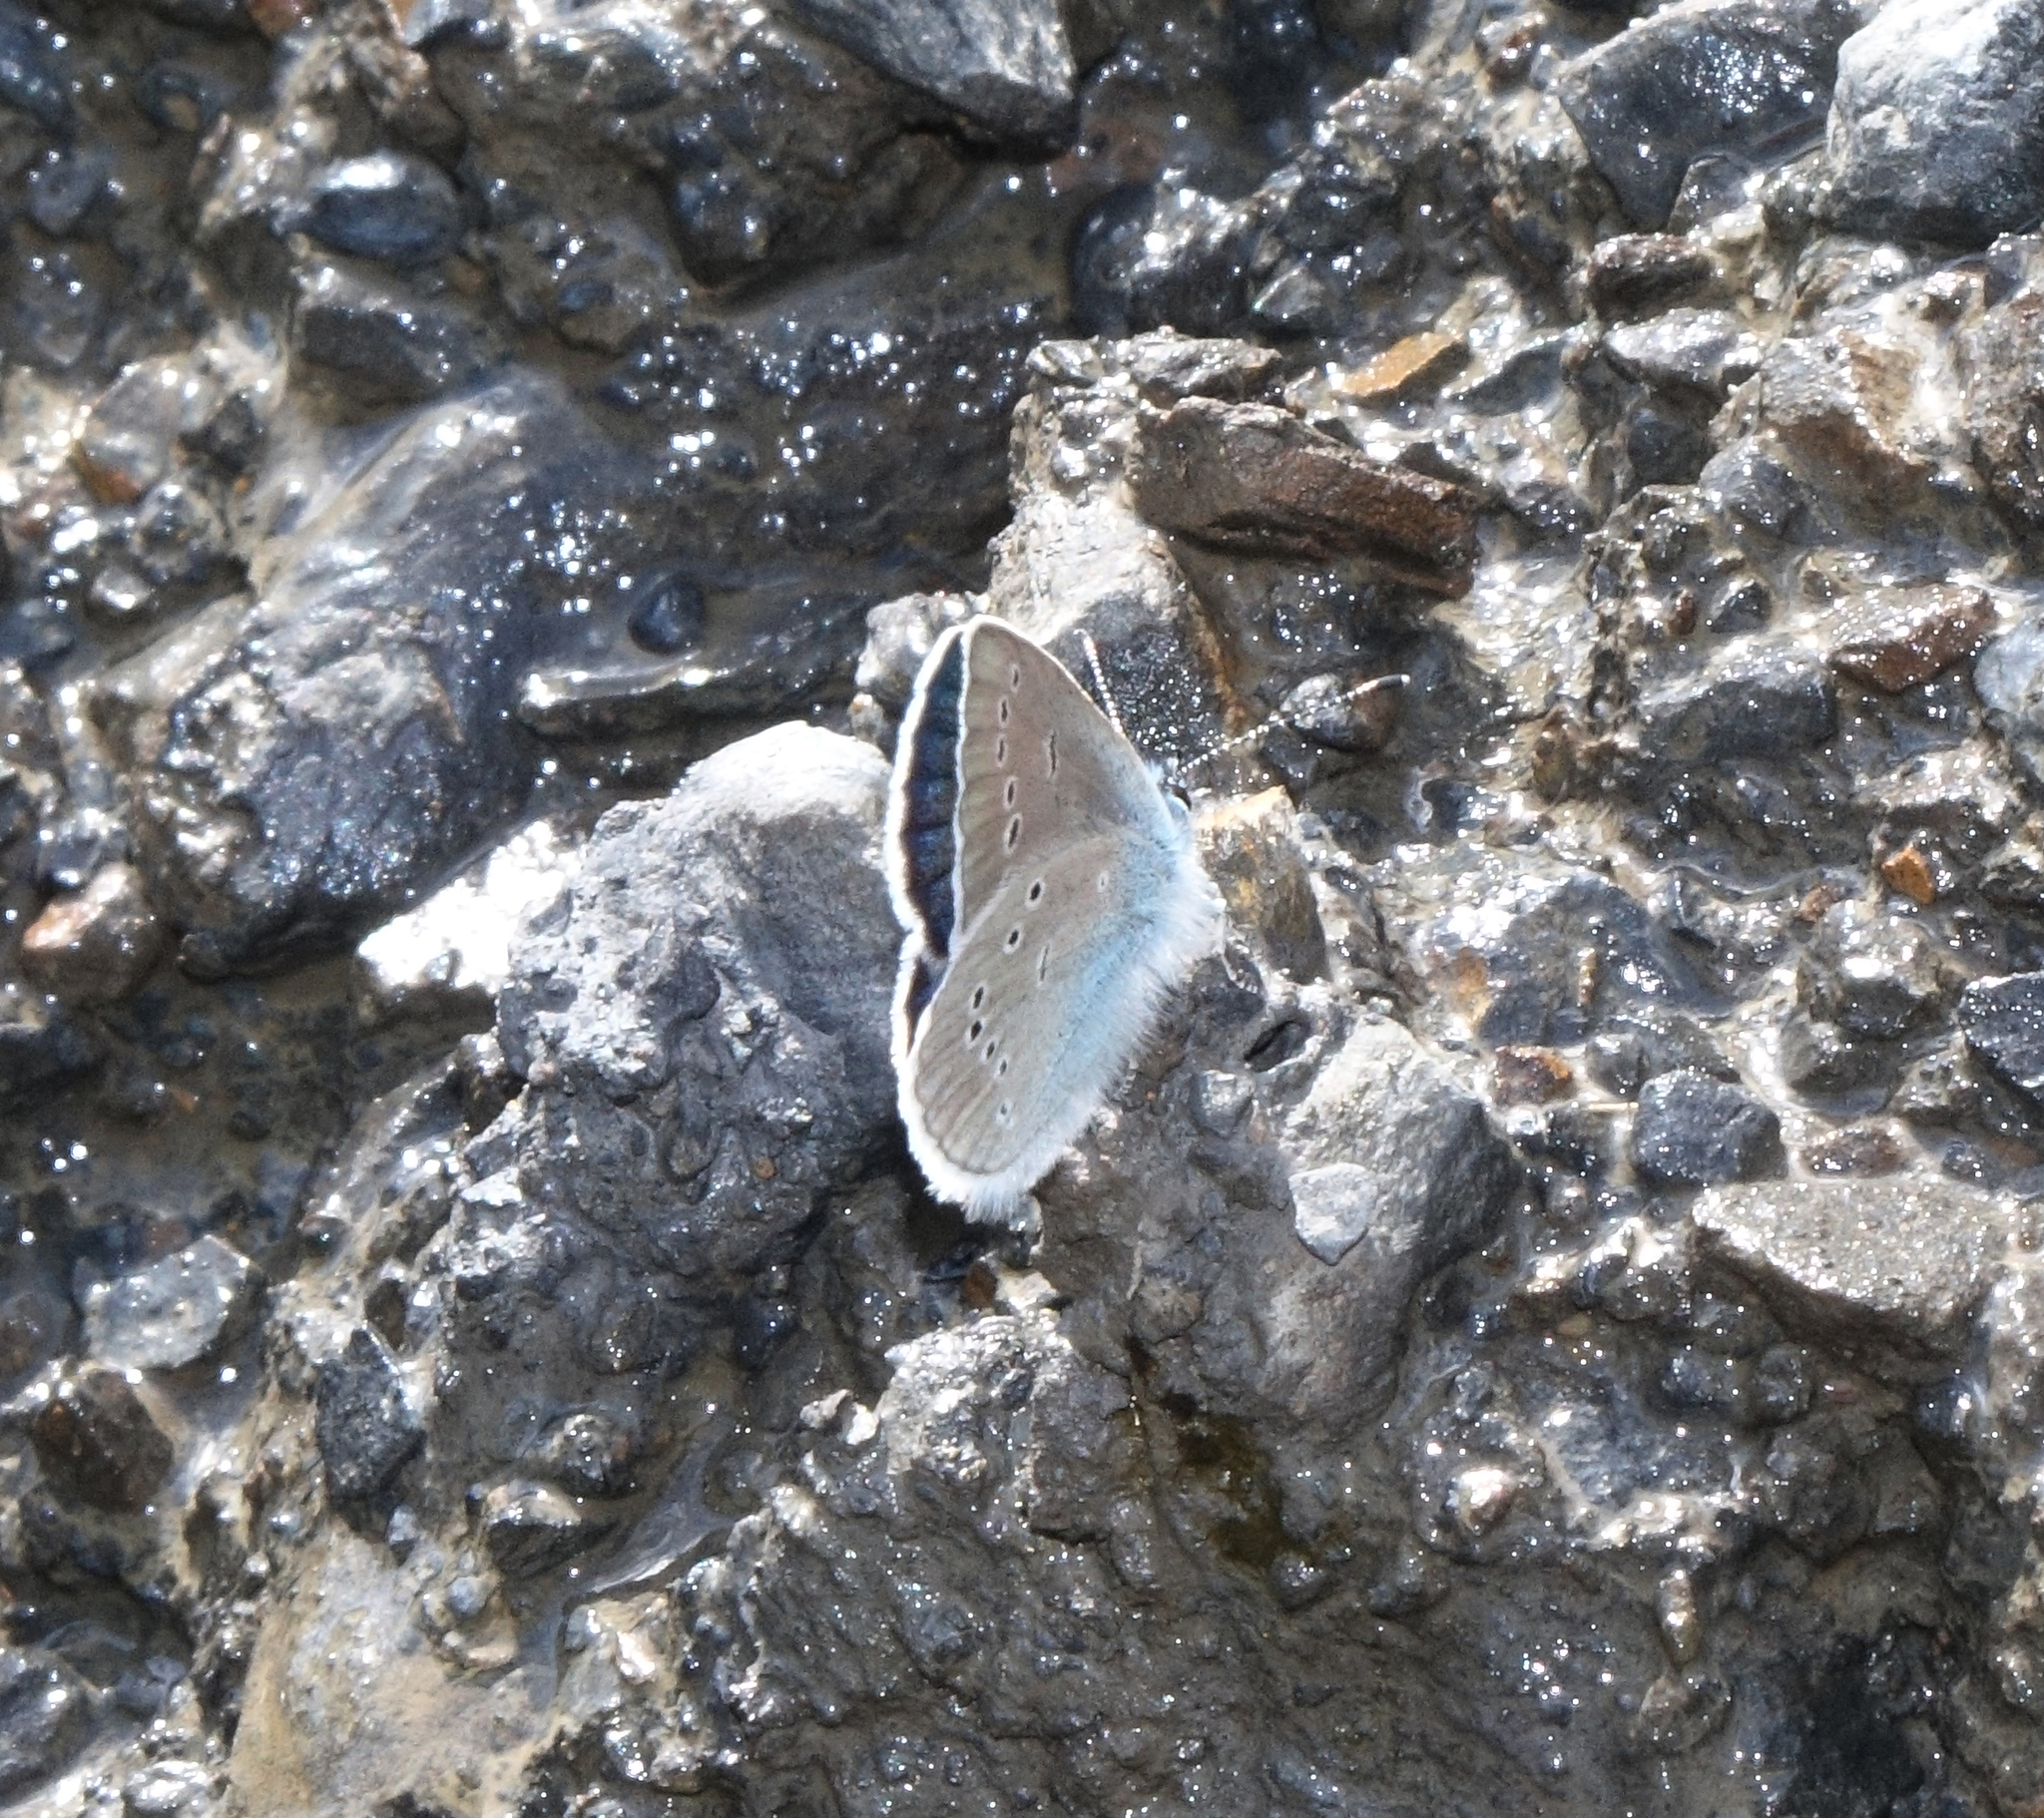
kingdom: Animalia
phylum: Arthropoda
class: Insecta
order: Lepidoptera
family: Lycaenidae
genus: Cyaniris
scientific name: Cyaniris semiargus
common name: Mazarine blue
